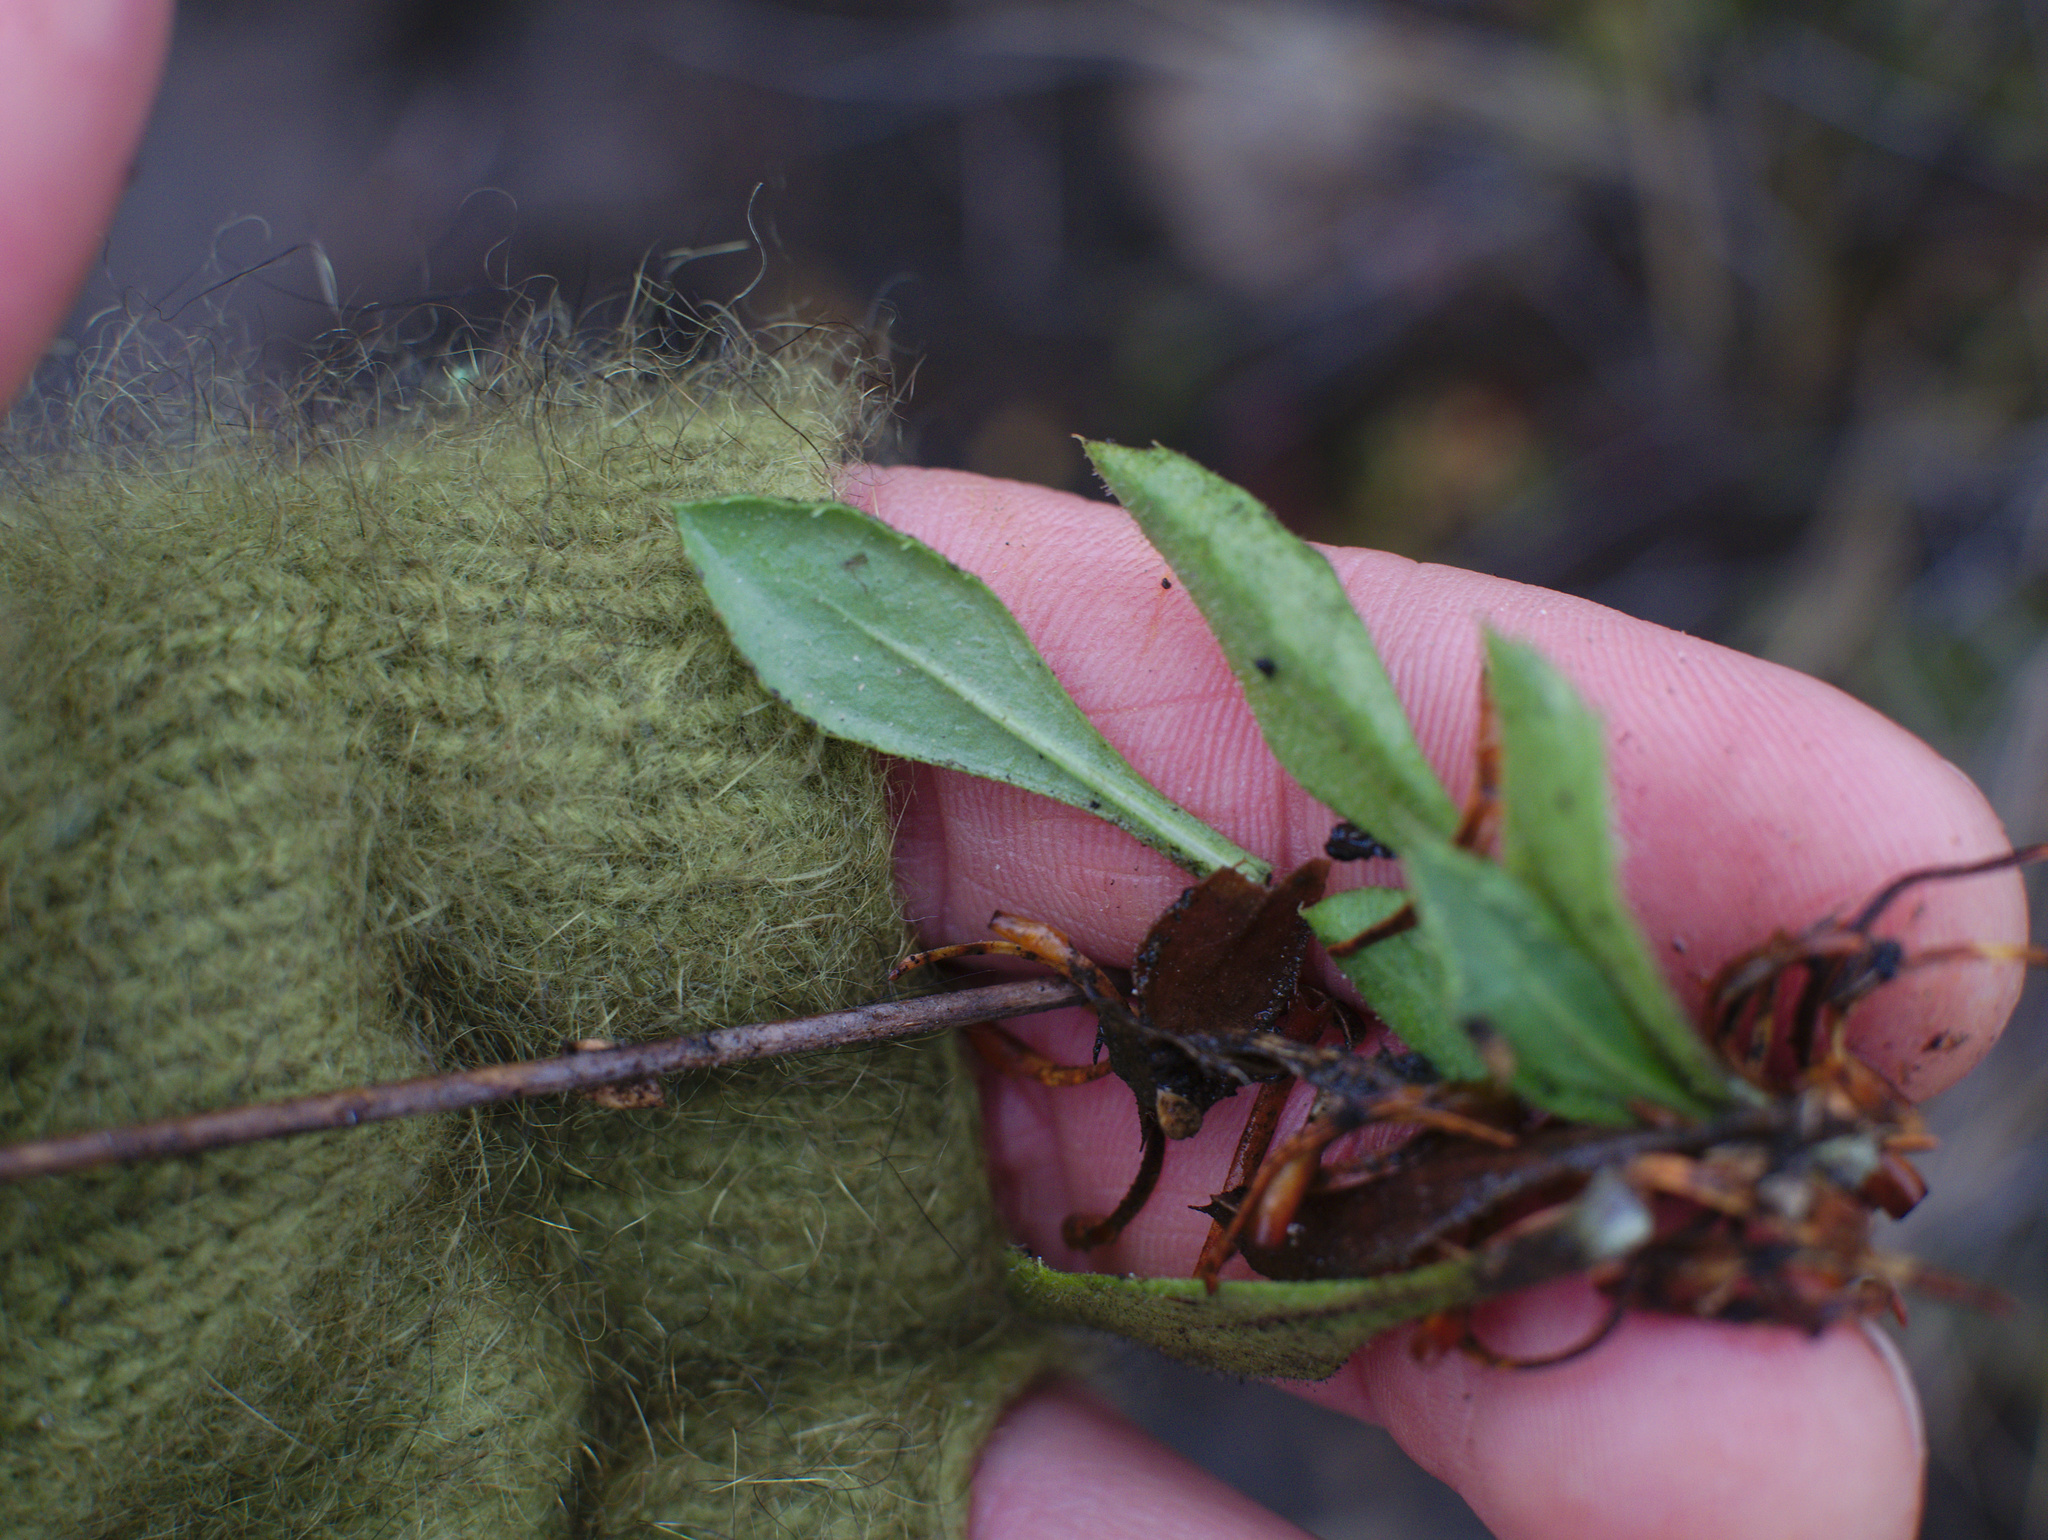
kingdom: Plantae
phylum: Tracheophyta
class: Magnoliopsida
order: Asterales
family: Asteraceae
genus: Celmisia
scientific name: Celmisia glandulosa
